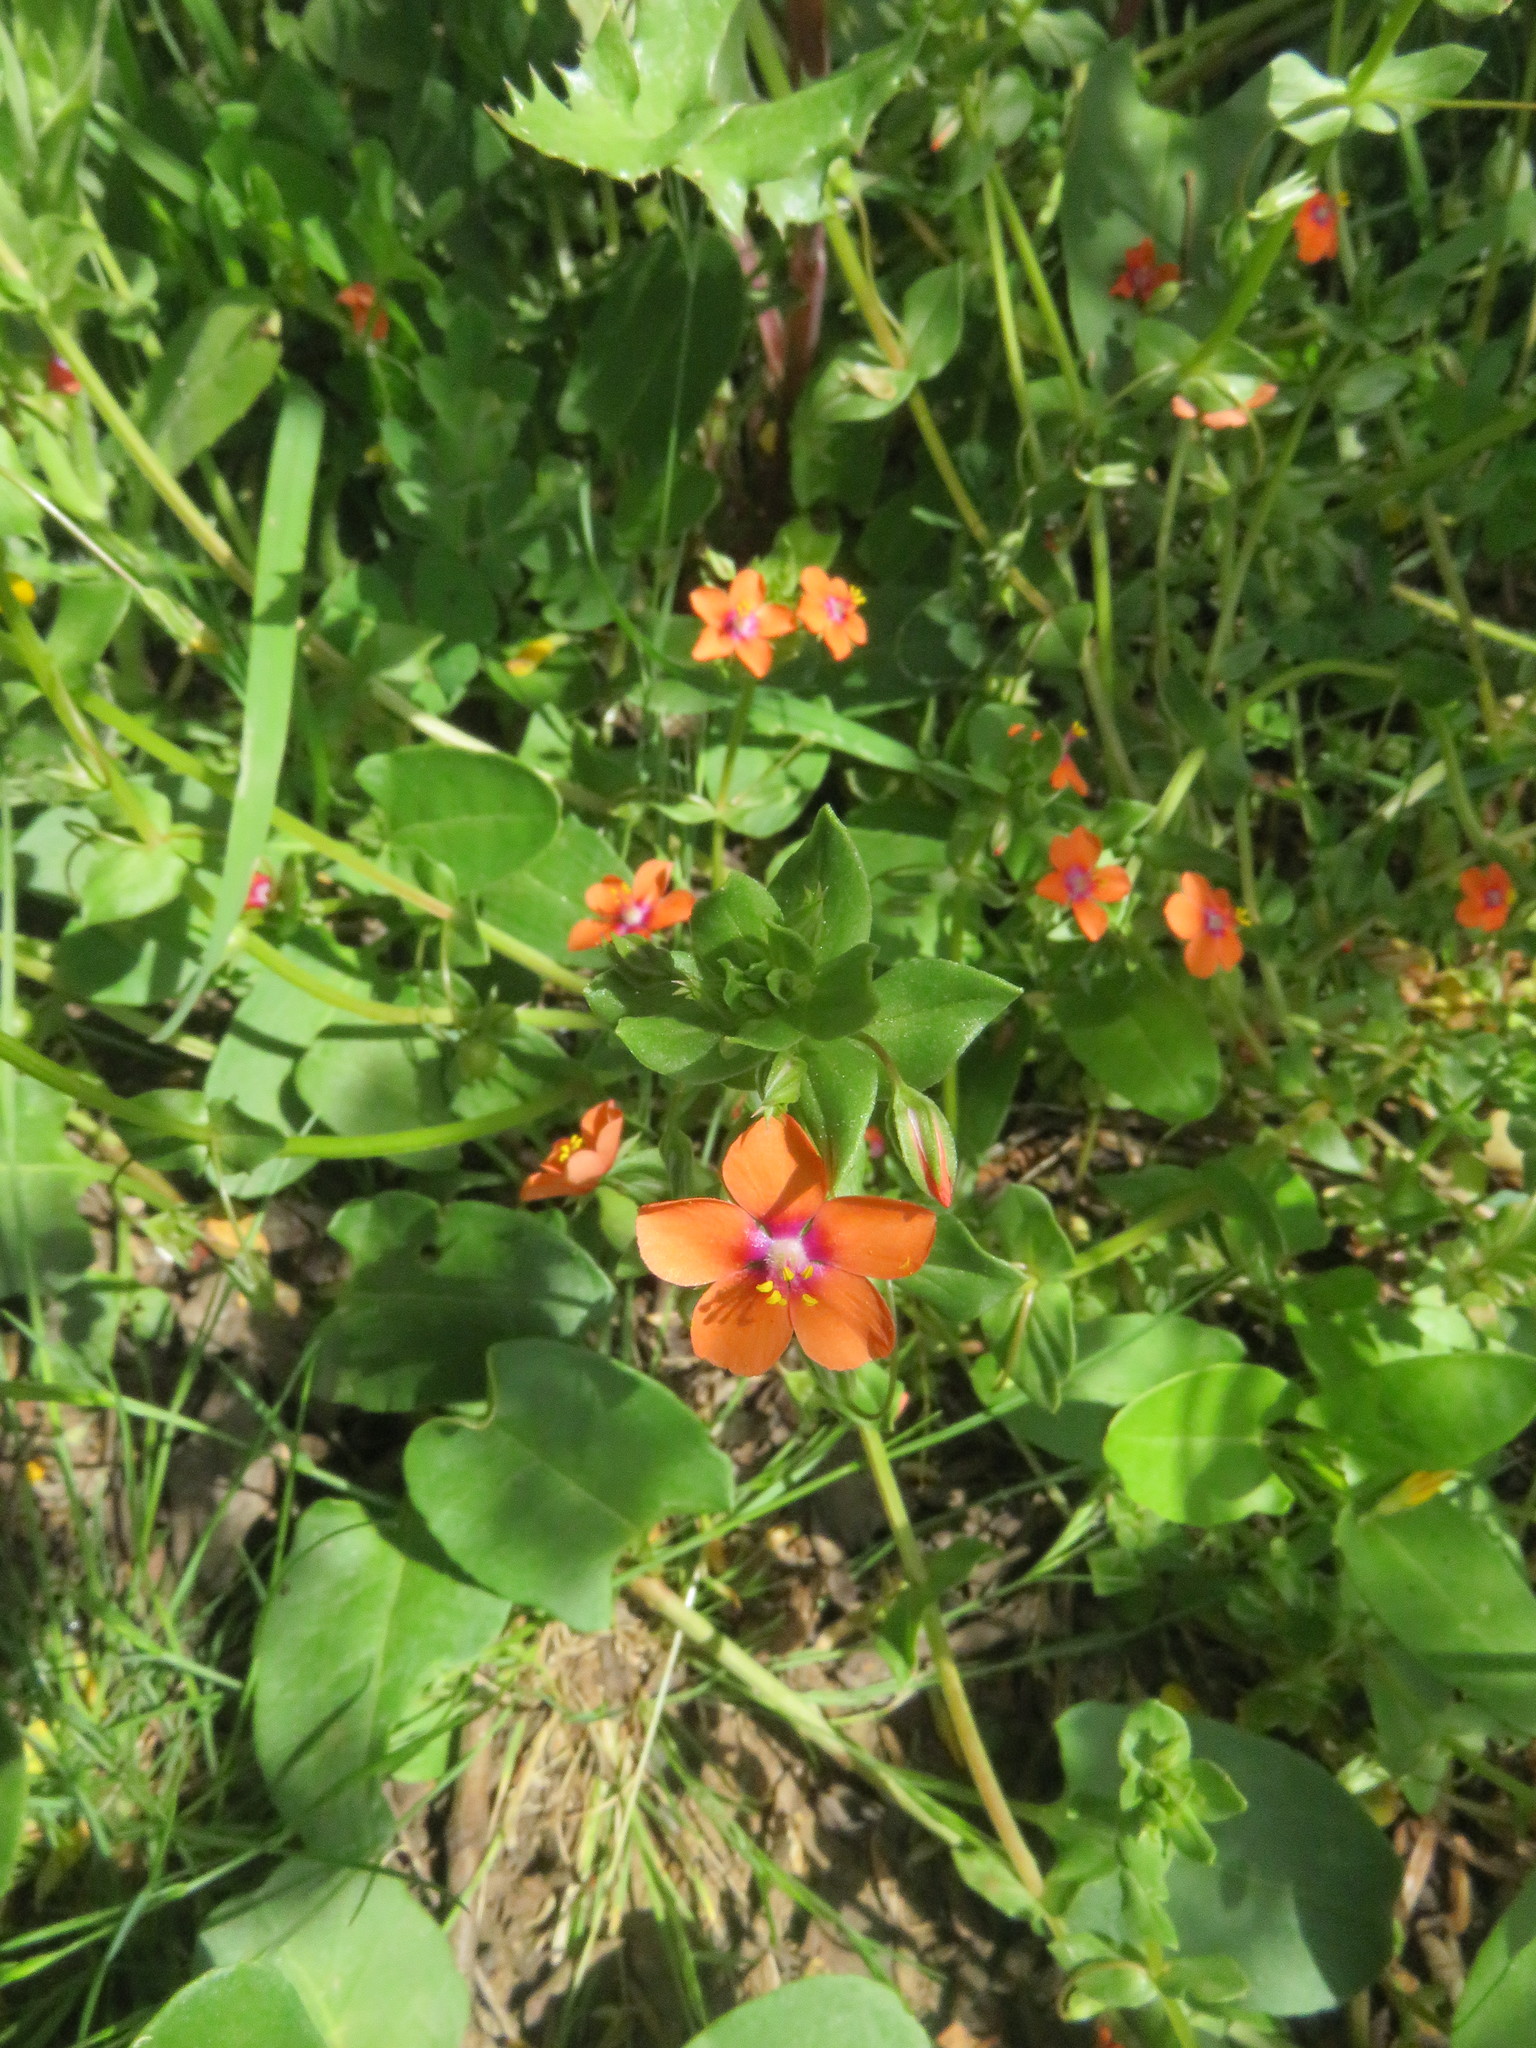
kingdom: Plantae
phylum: Tracheophyta
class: Magnoliopsida
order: Ericales
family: Primulaceae
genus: Lysimachia
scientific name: Lysimachia arvensis
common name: Scarlet pimpernel
